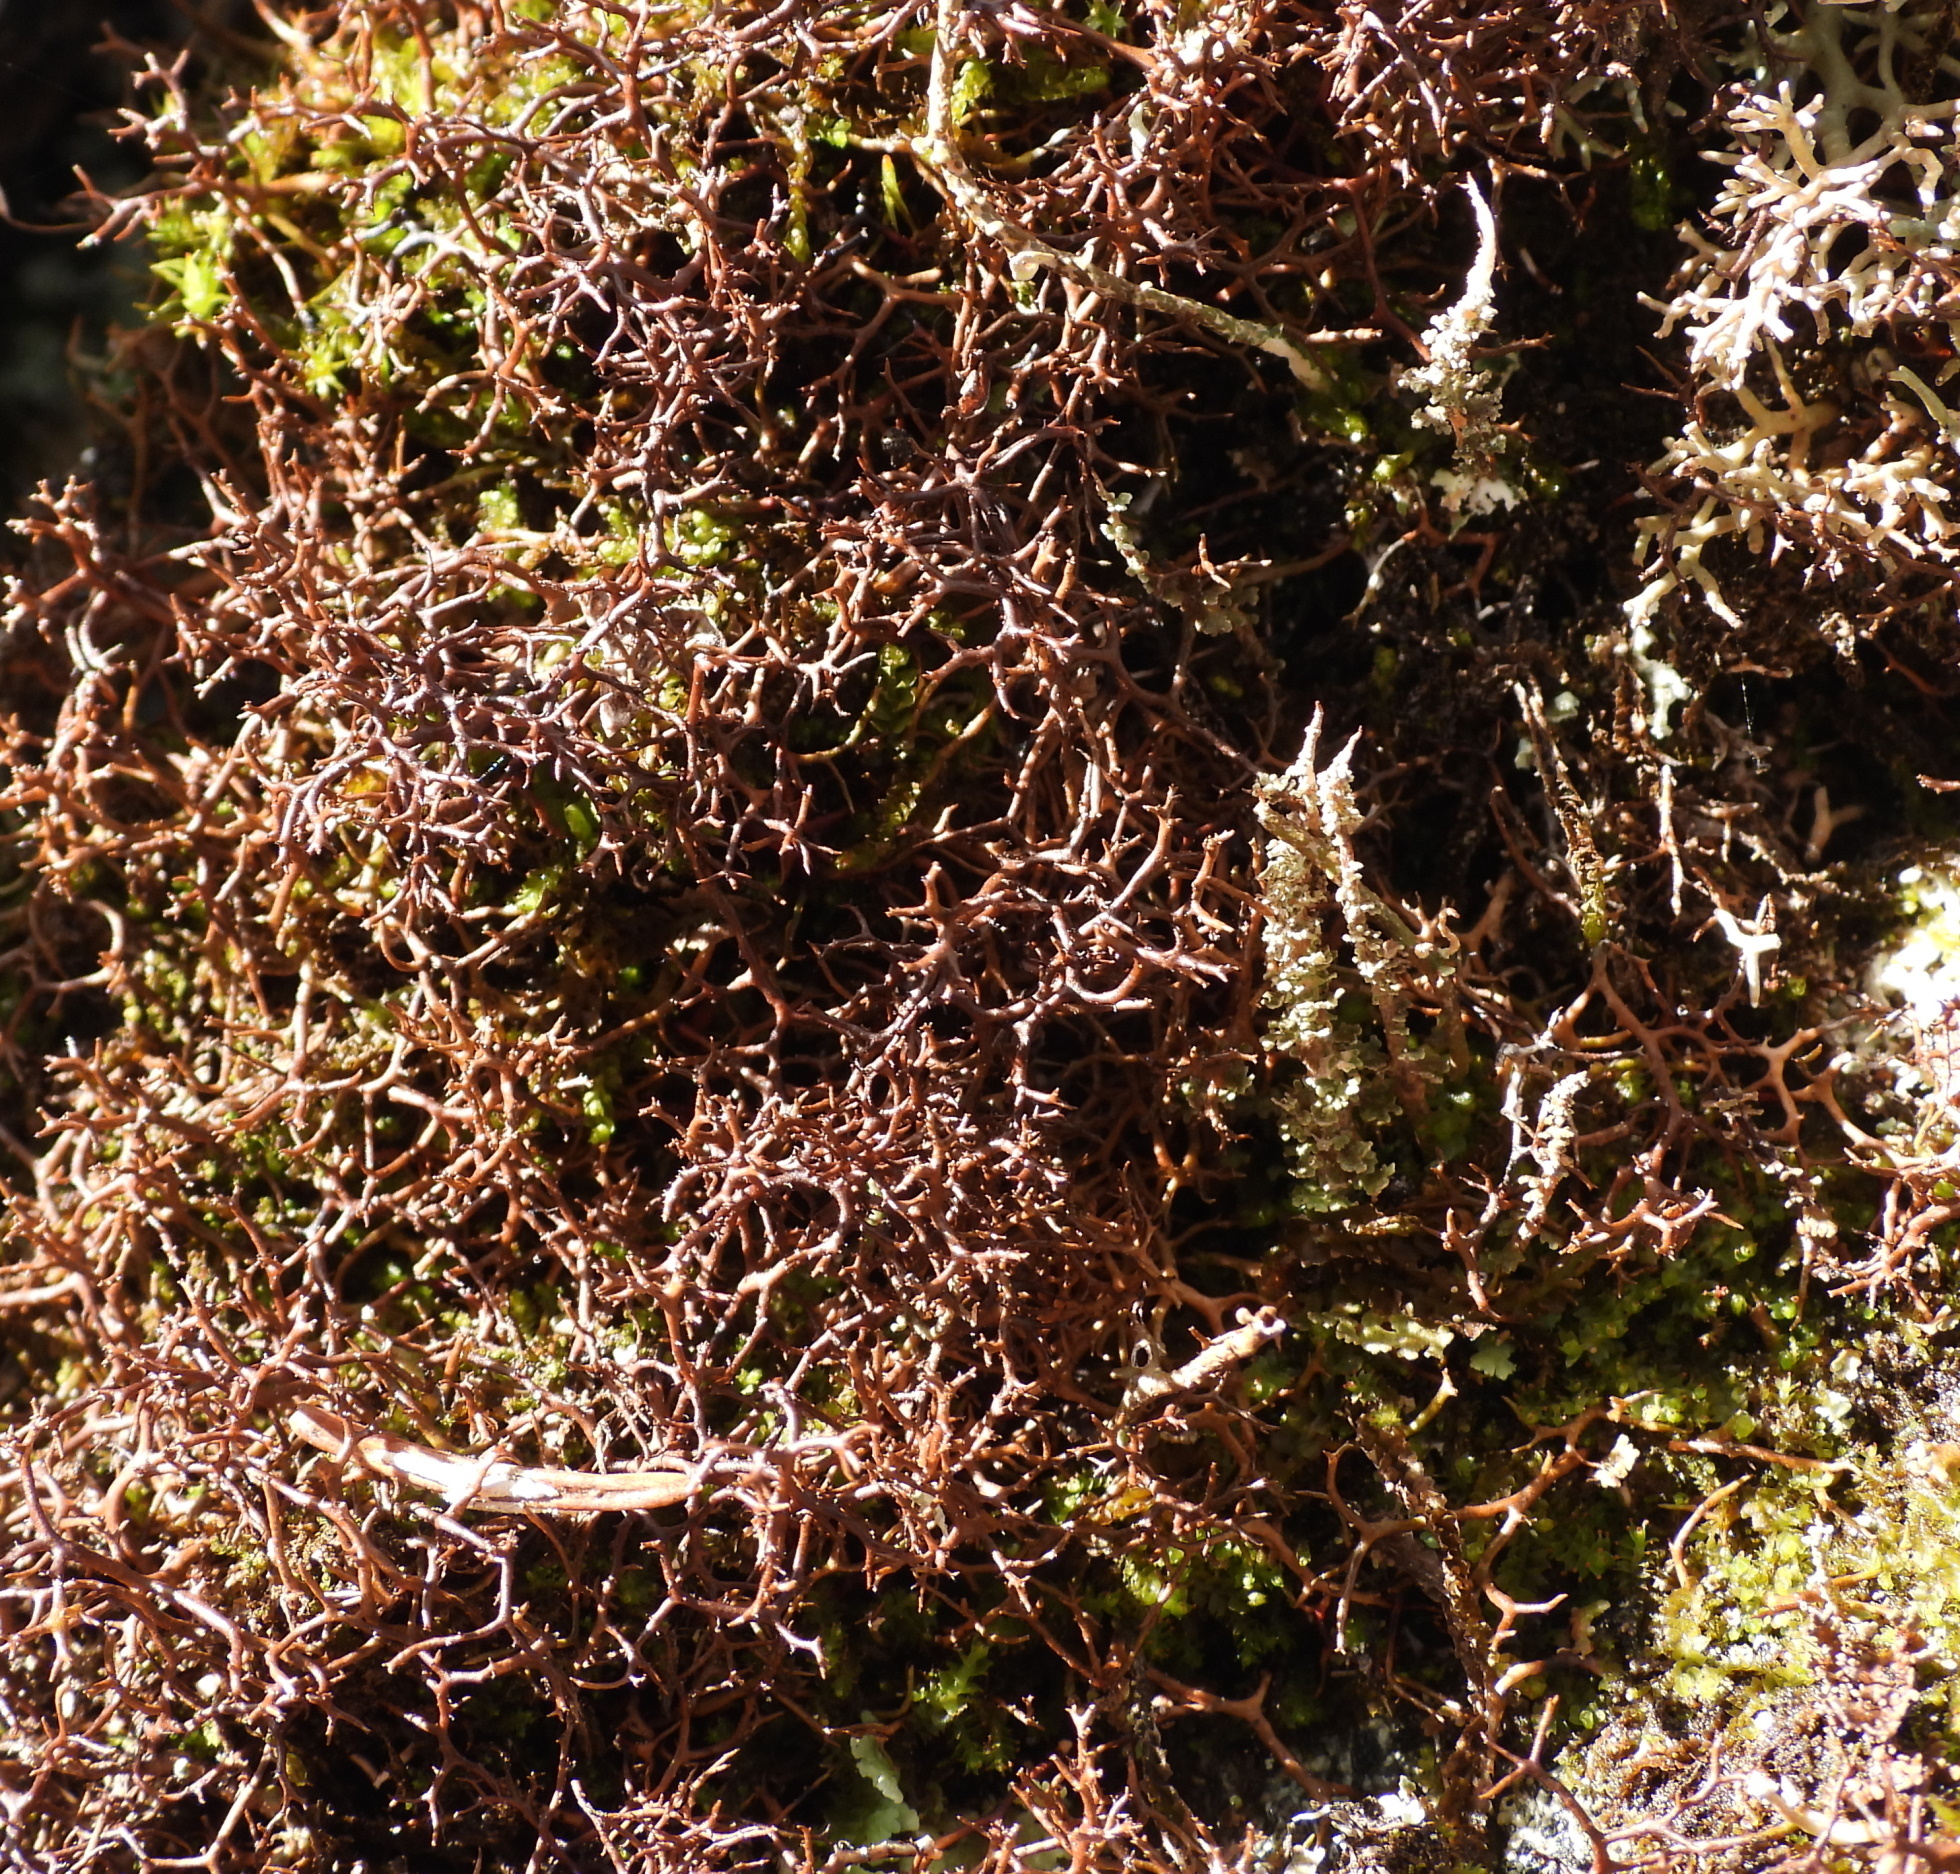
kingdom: Fungi
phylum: Ascomycota
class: Lecanoromycetes
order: Lecanorales
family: Parmeliaceae
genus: Cetraria
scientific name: Cetraria muricata
